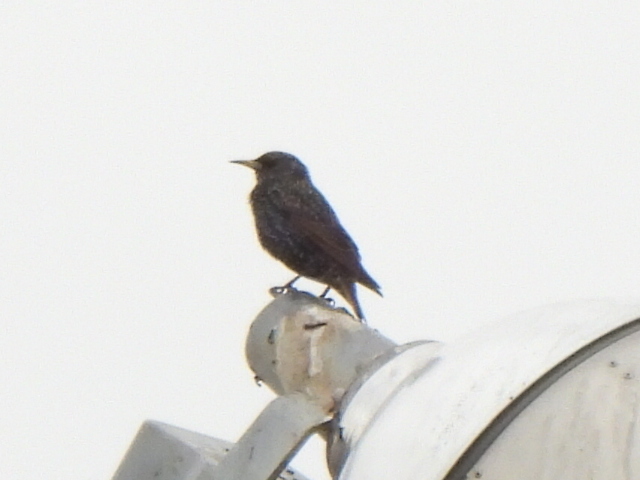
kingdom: Animalia
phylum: Chordata
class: Aves
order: Passeriformes
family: Sturnidae
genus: Sturnus
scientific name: Sturnus vulgaris
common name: Common starling
